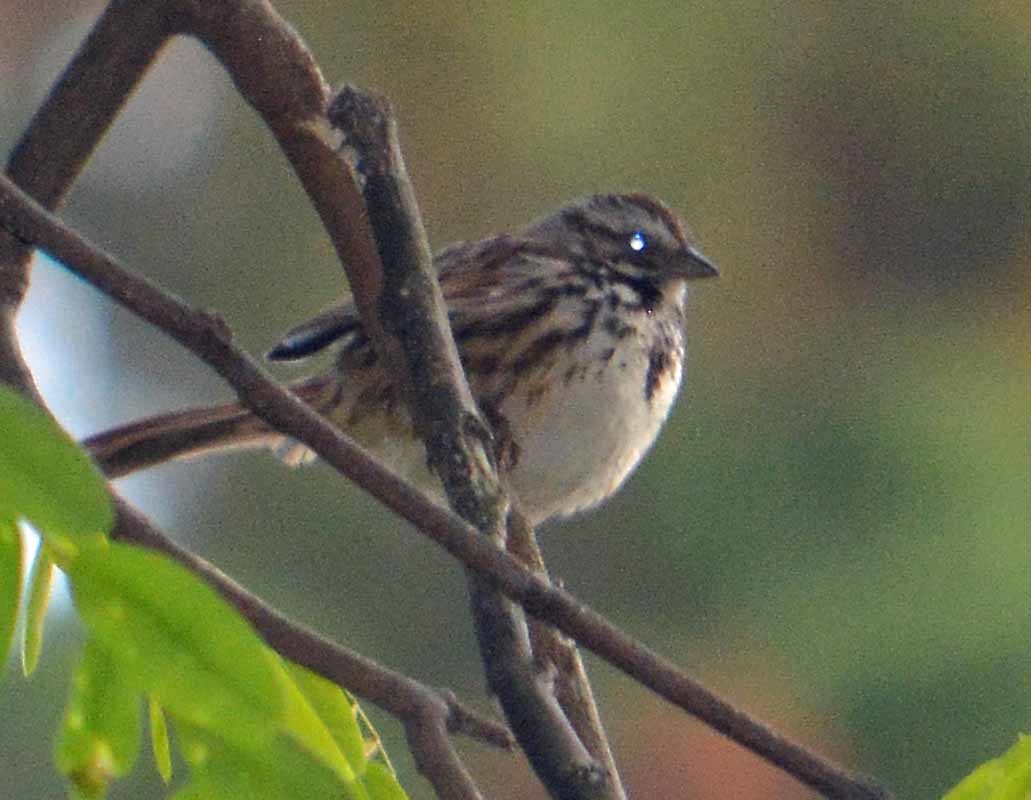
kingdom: Animalia
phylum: Chordata
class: Aves
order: Passeriformes
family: Passerellidae
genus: Melospiza
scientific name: Melospiza melodia
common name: Song sparrow
